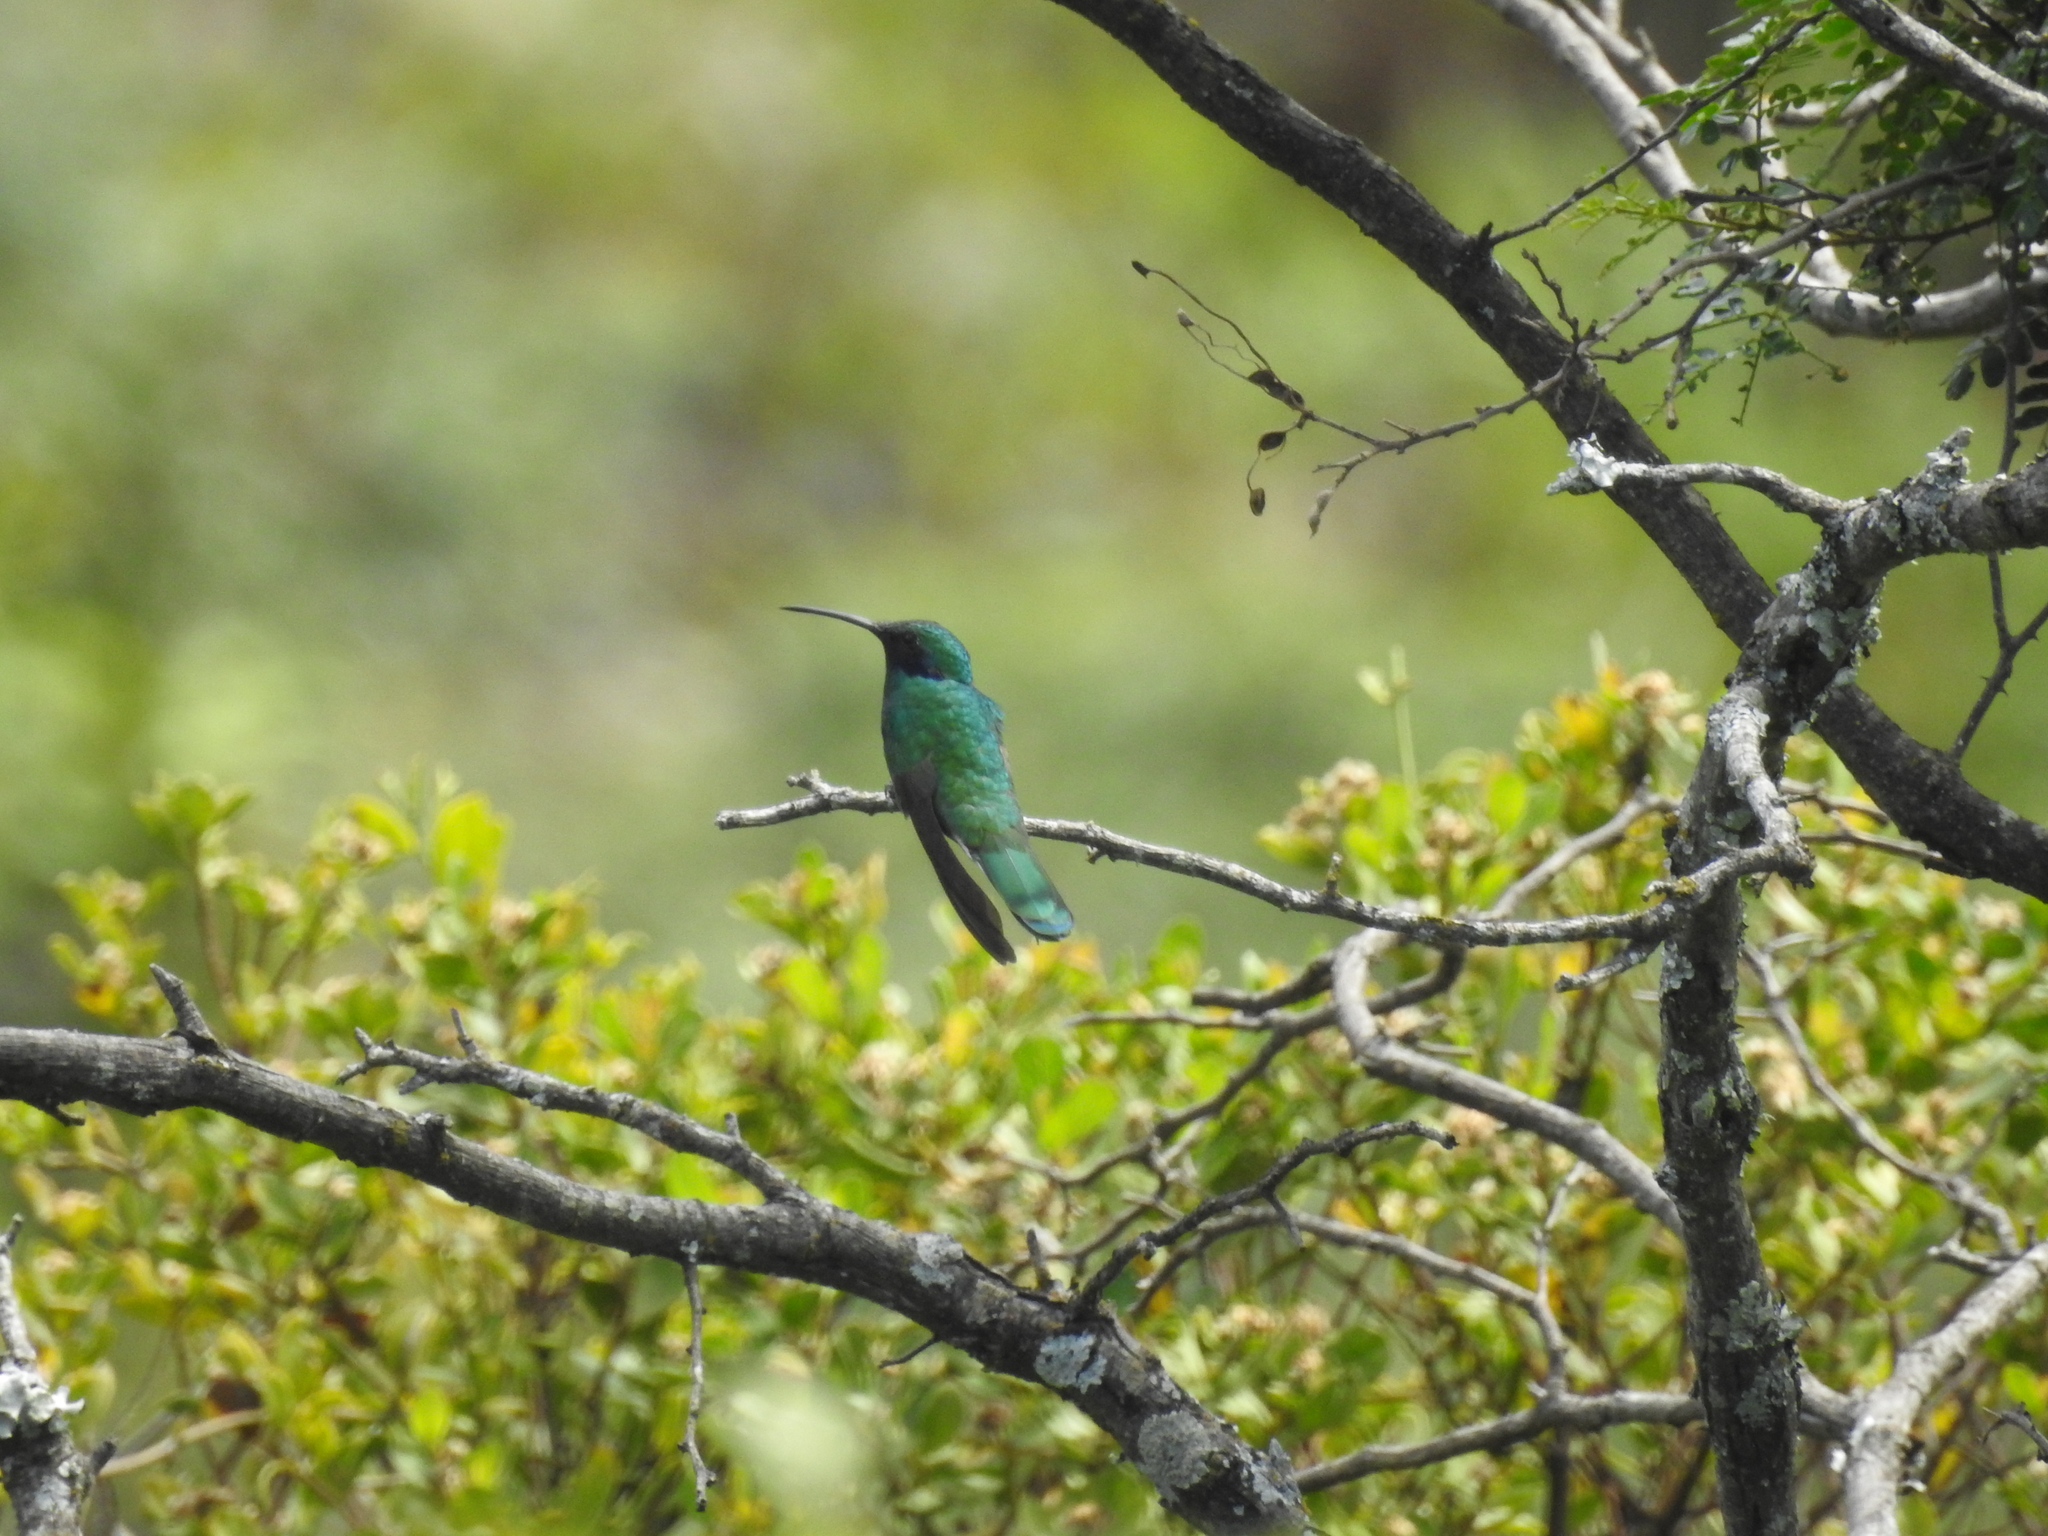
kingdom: Animalia
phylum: Chordata
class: Aves
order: Apodiformes
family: Trochilidae
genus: Colibri
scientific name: Colibri coruscans
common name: Sparkling violetear
